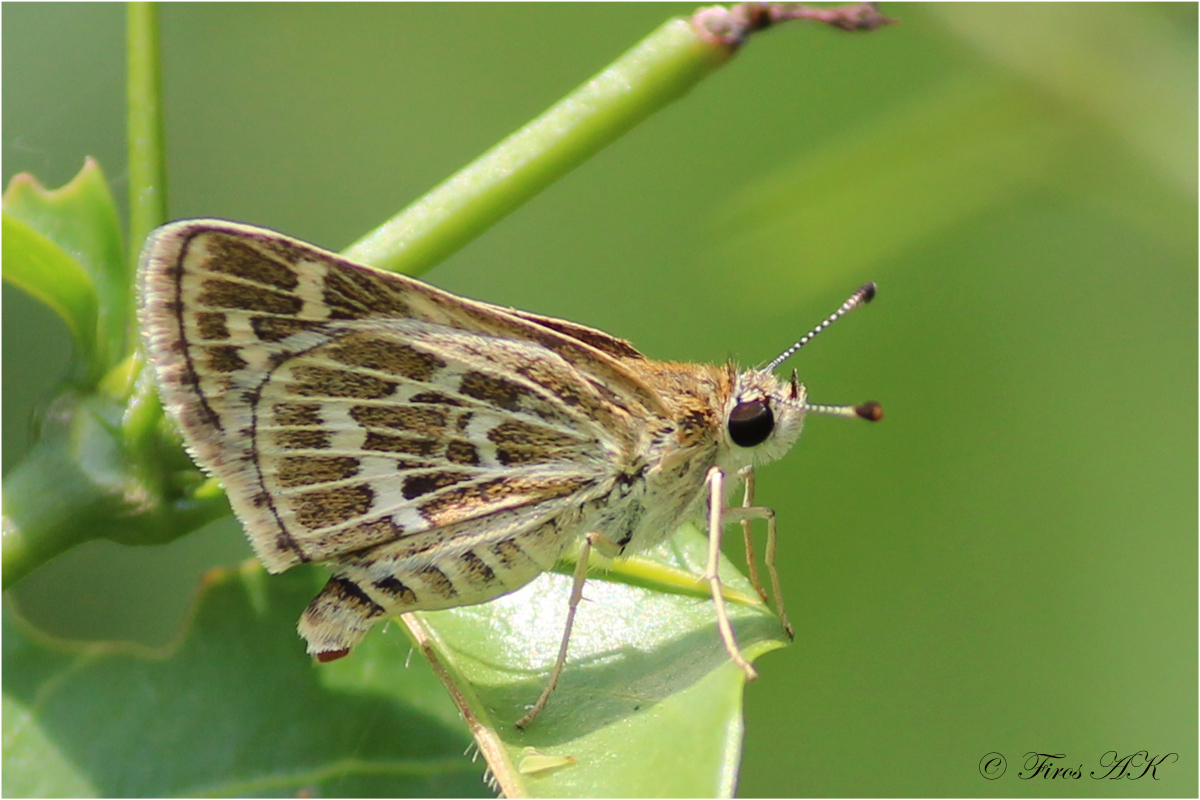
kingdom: Animalia
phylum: Arthropoda
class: Insecta
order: Lepidoptera
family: Hesperiidae
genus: Taractrocera
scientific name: Taractrocera maevius
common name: Common grass-dart
